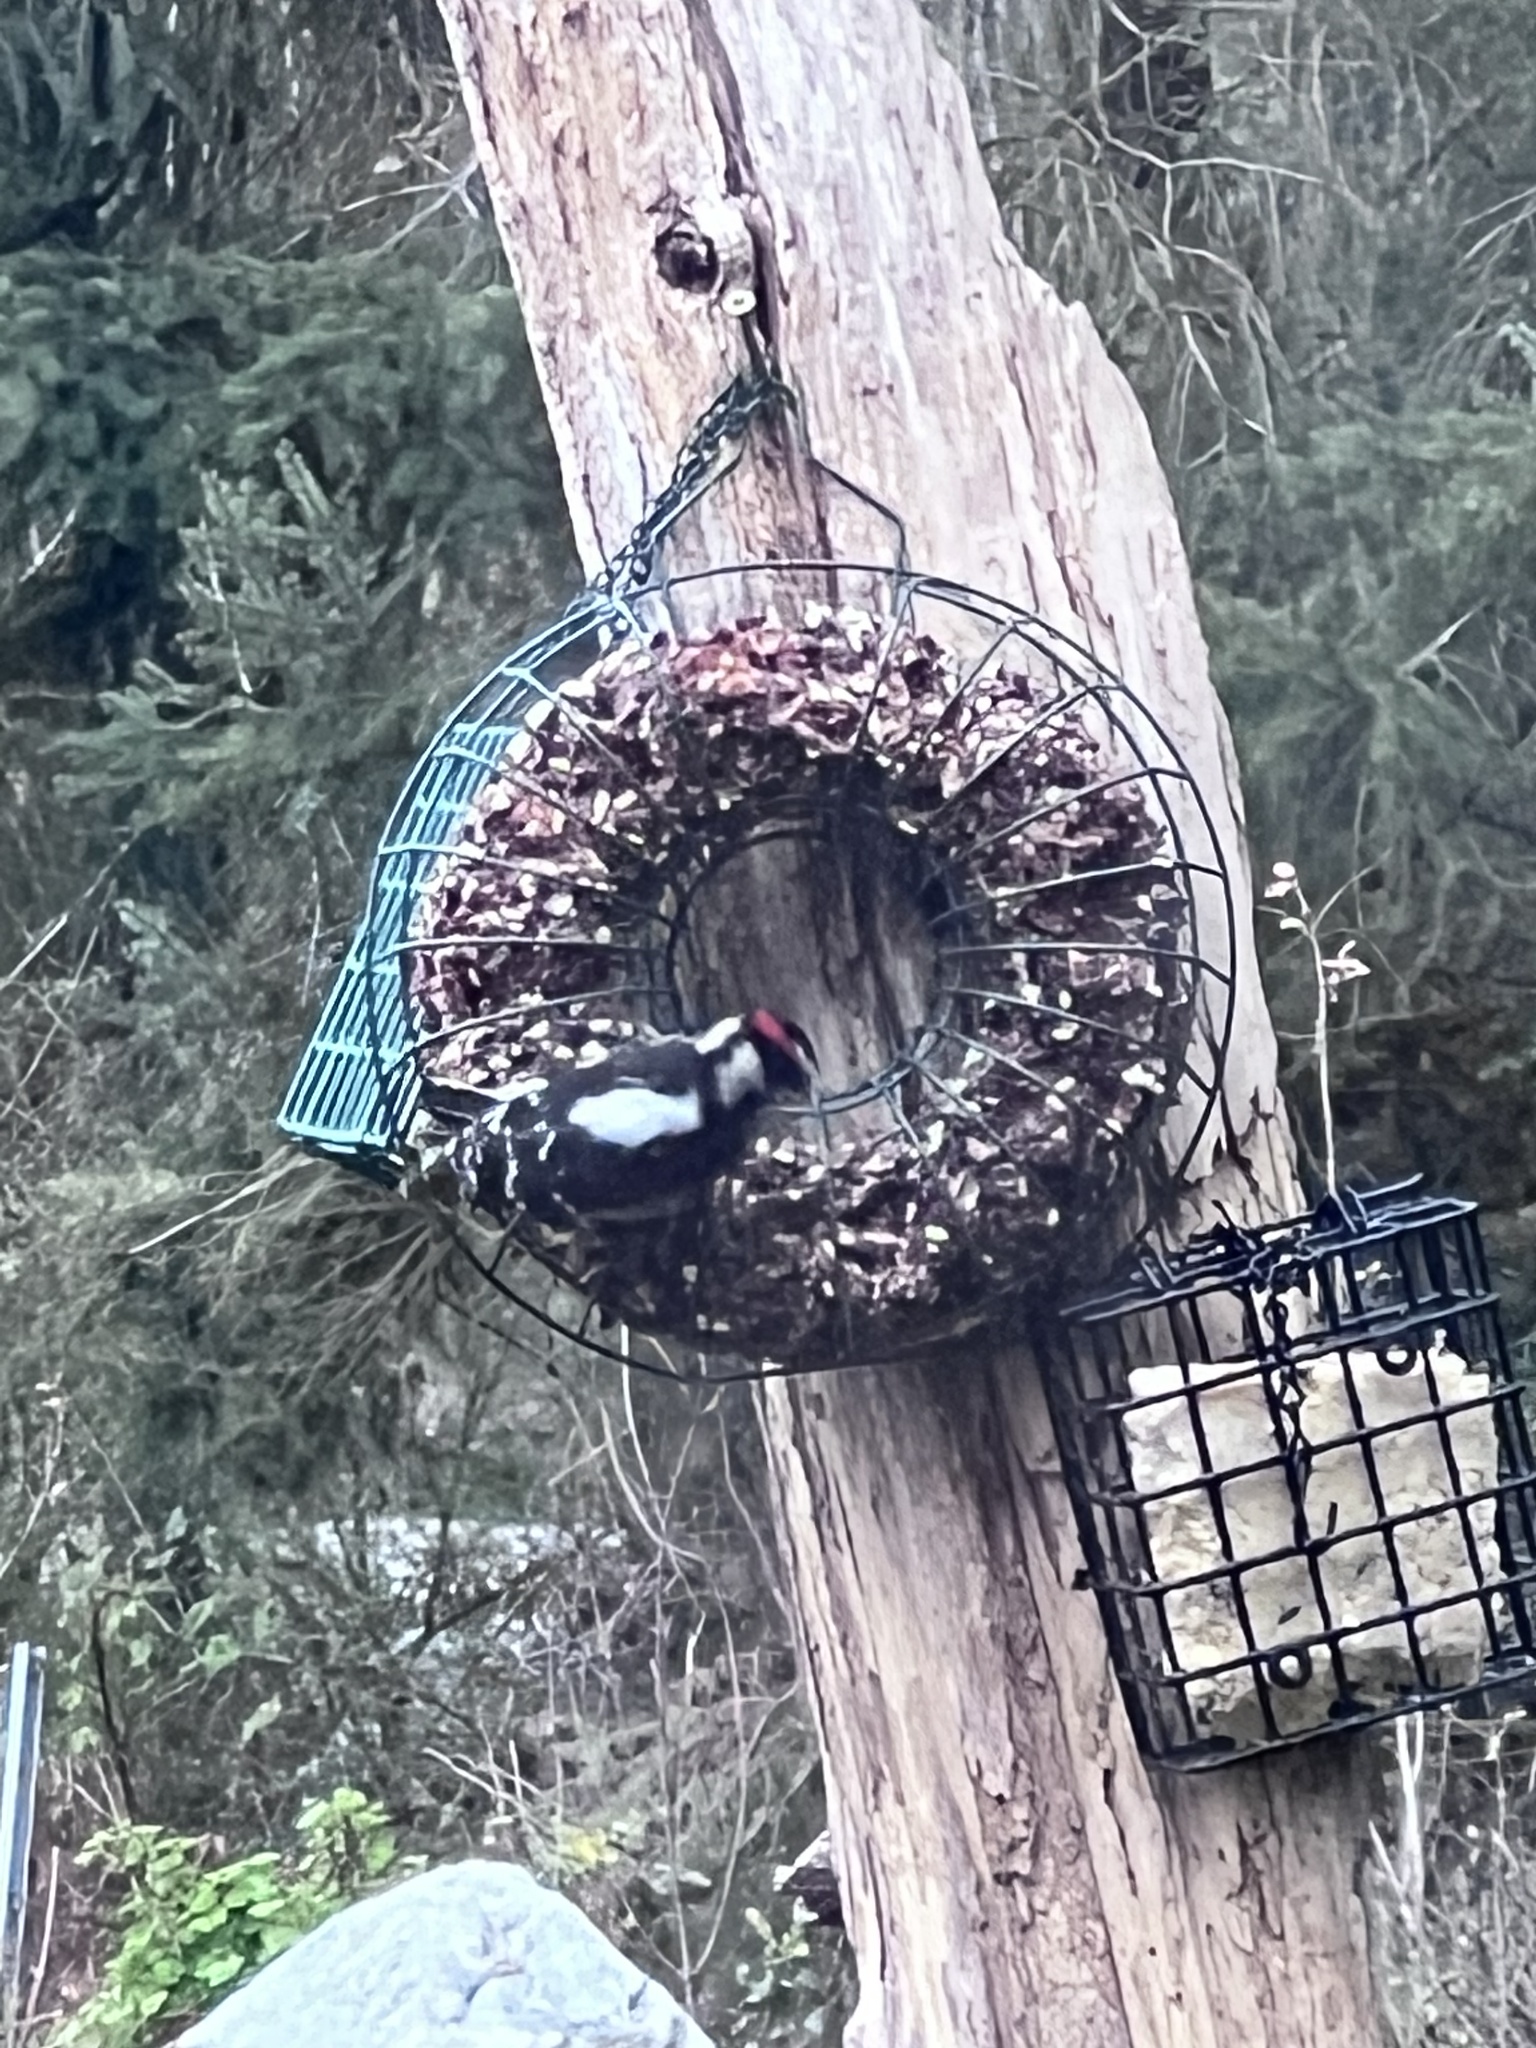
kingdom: Animalia
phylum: Chordata
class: Aves
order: Piciformes
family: Picidae
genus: Dryobates
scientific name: Dryobates pubescens
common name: Downy woodpecker
